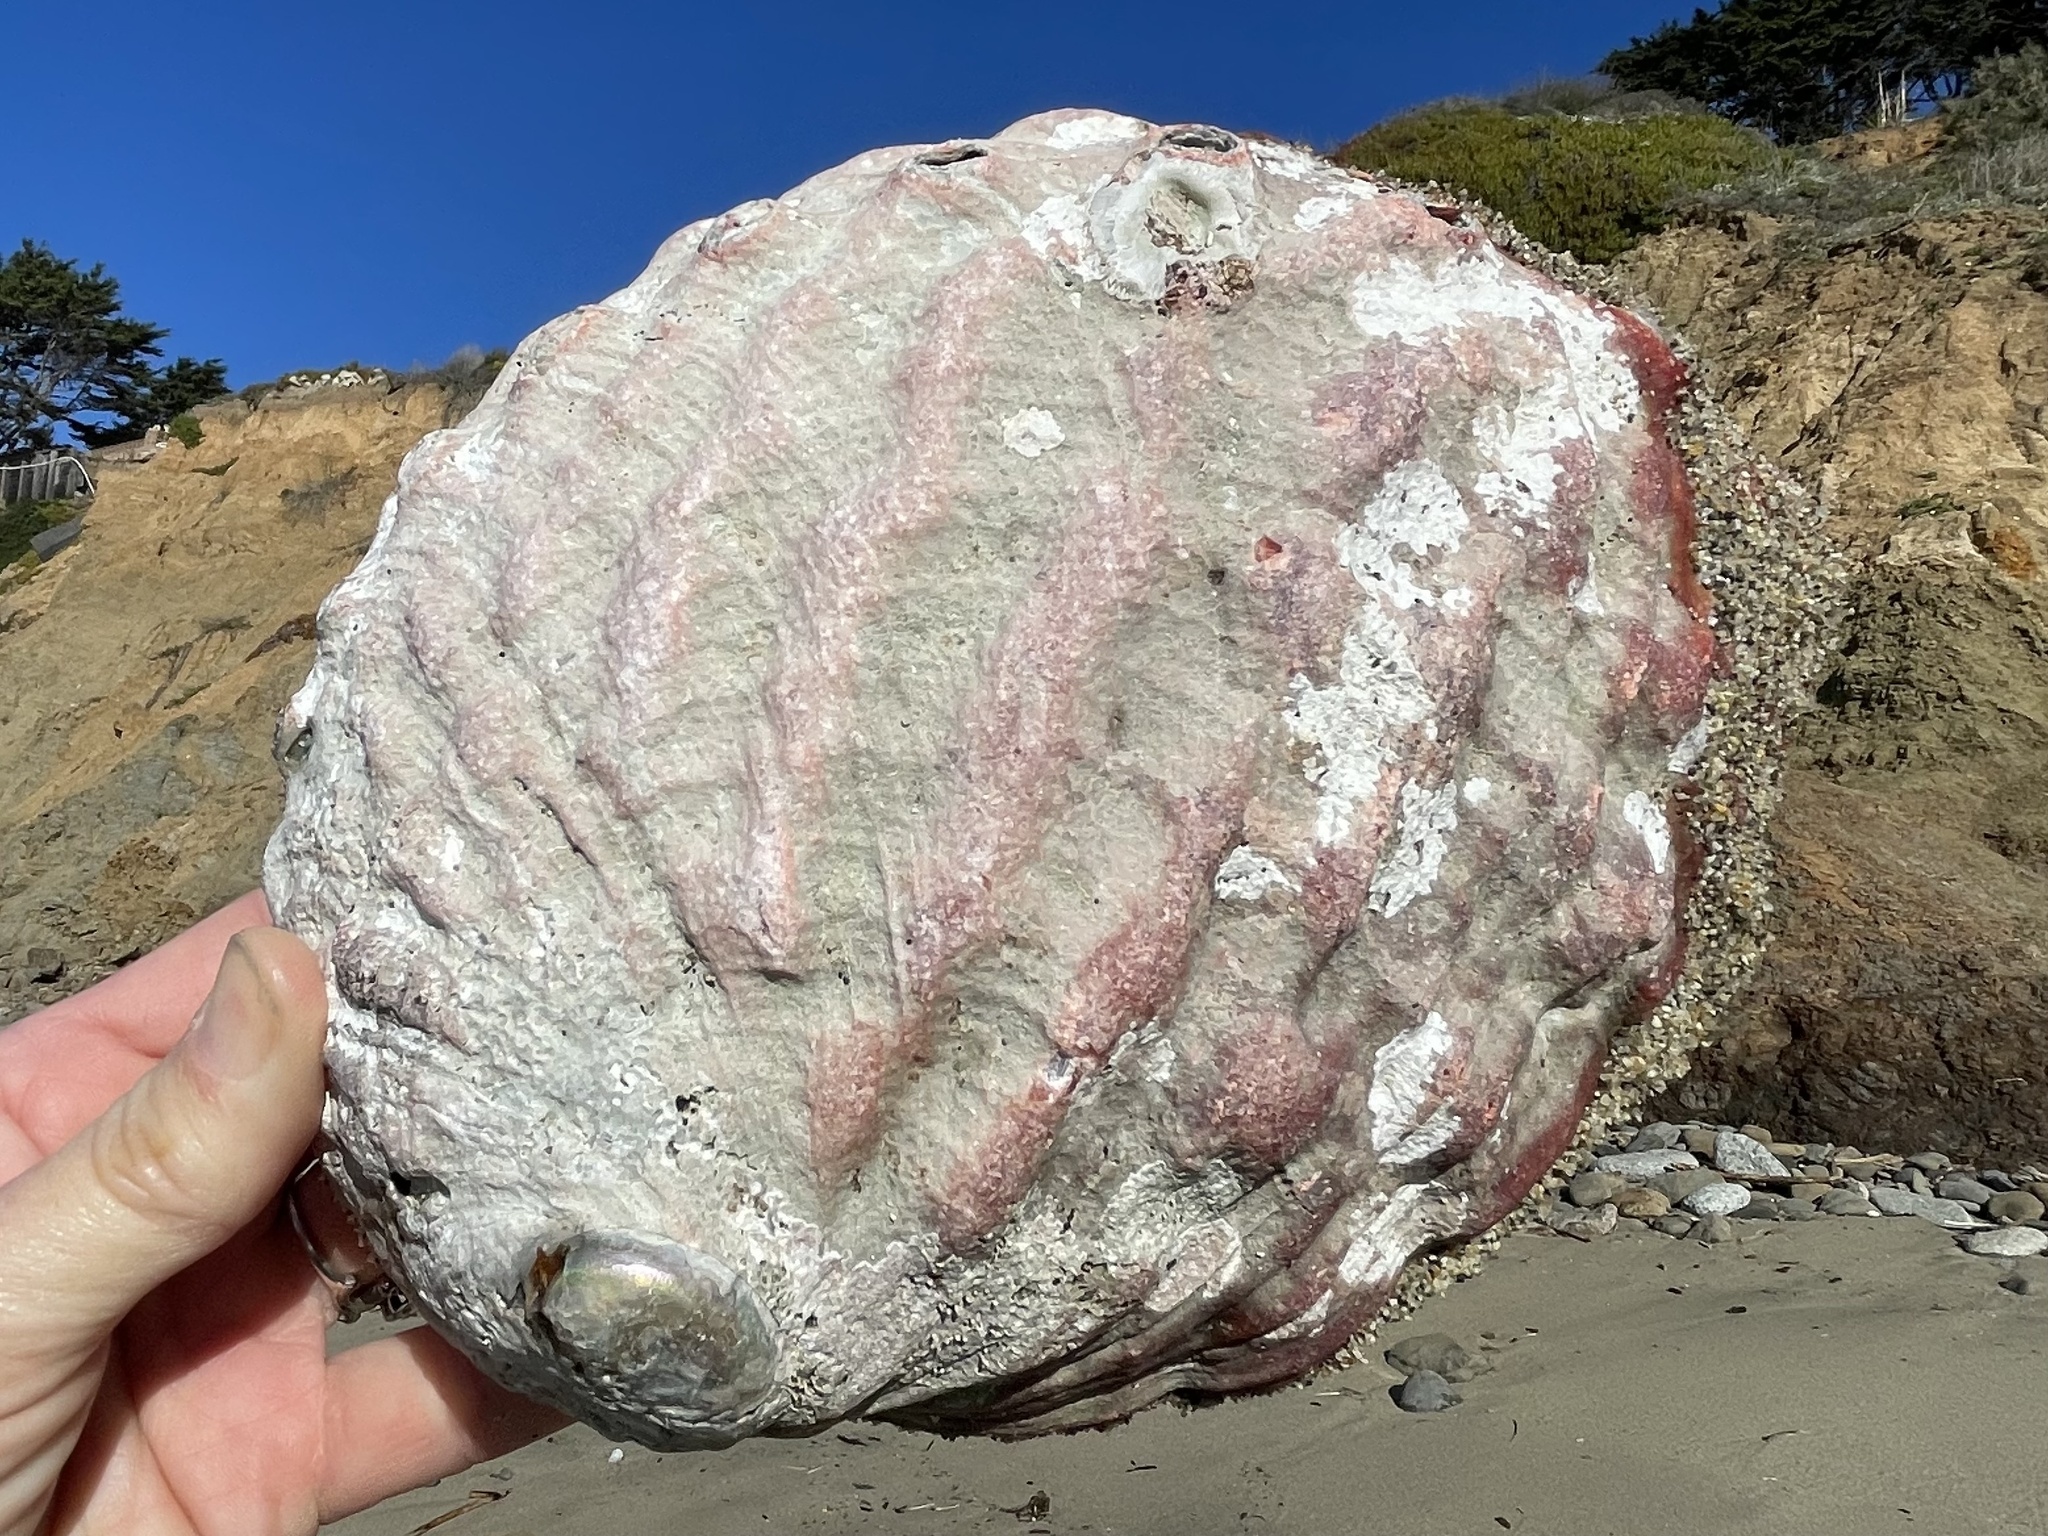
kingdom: Animalia
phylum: Mollusca
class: Gastropoda
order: Lepetellida
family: Haliotidae
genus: Haliotis
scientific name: Haliotis rufescens
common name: Red abalone
